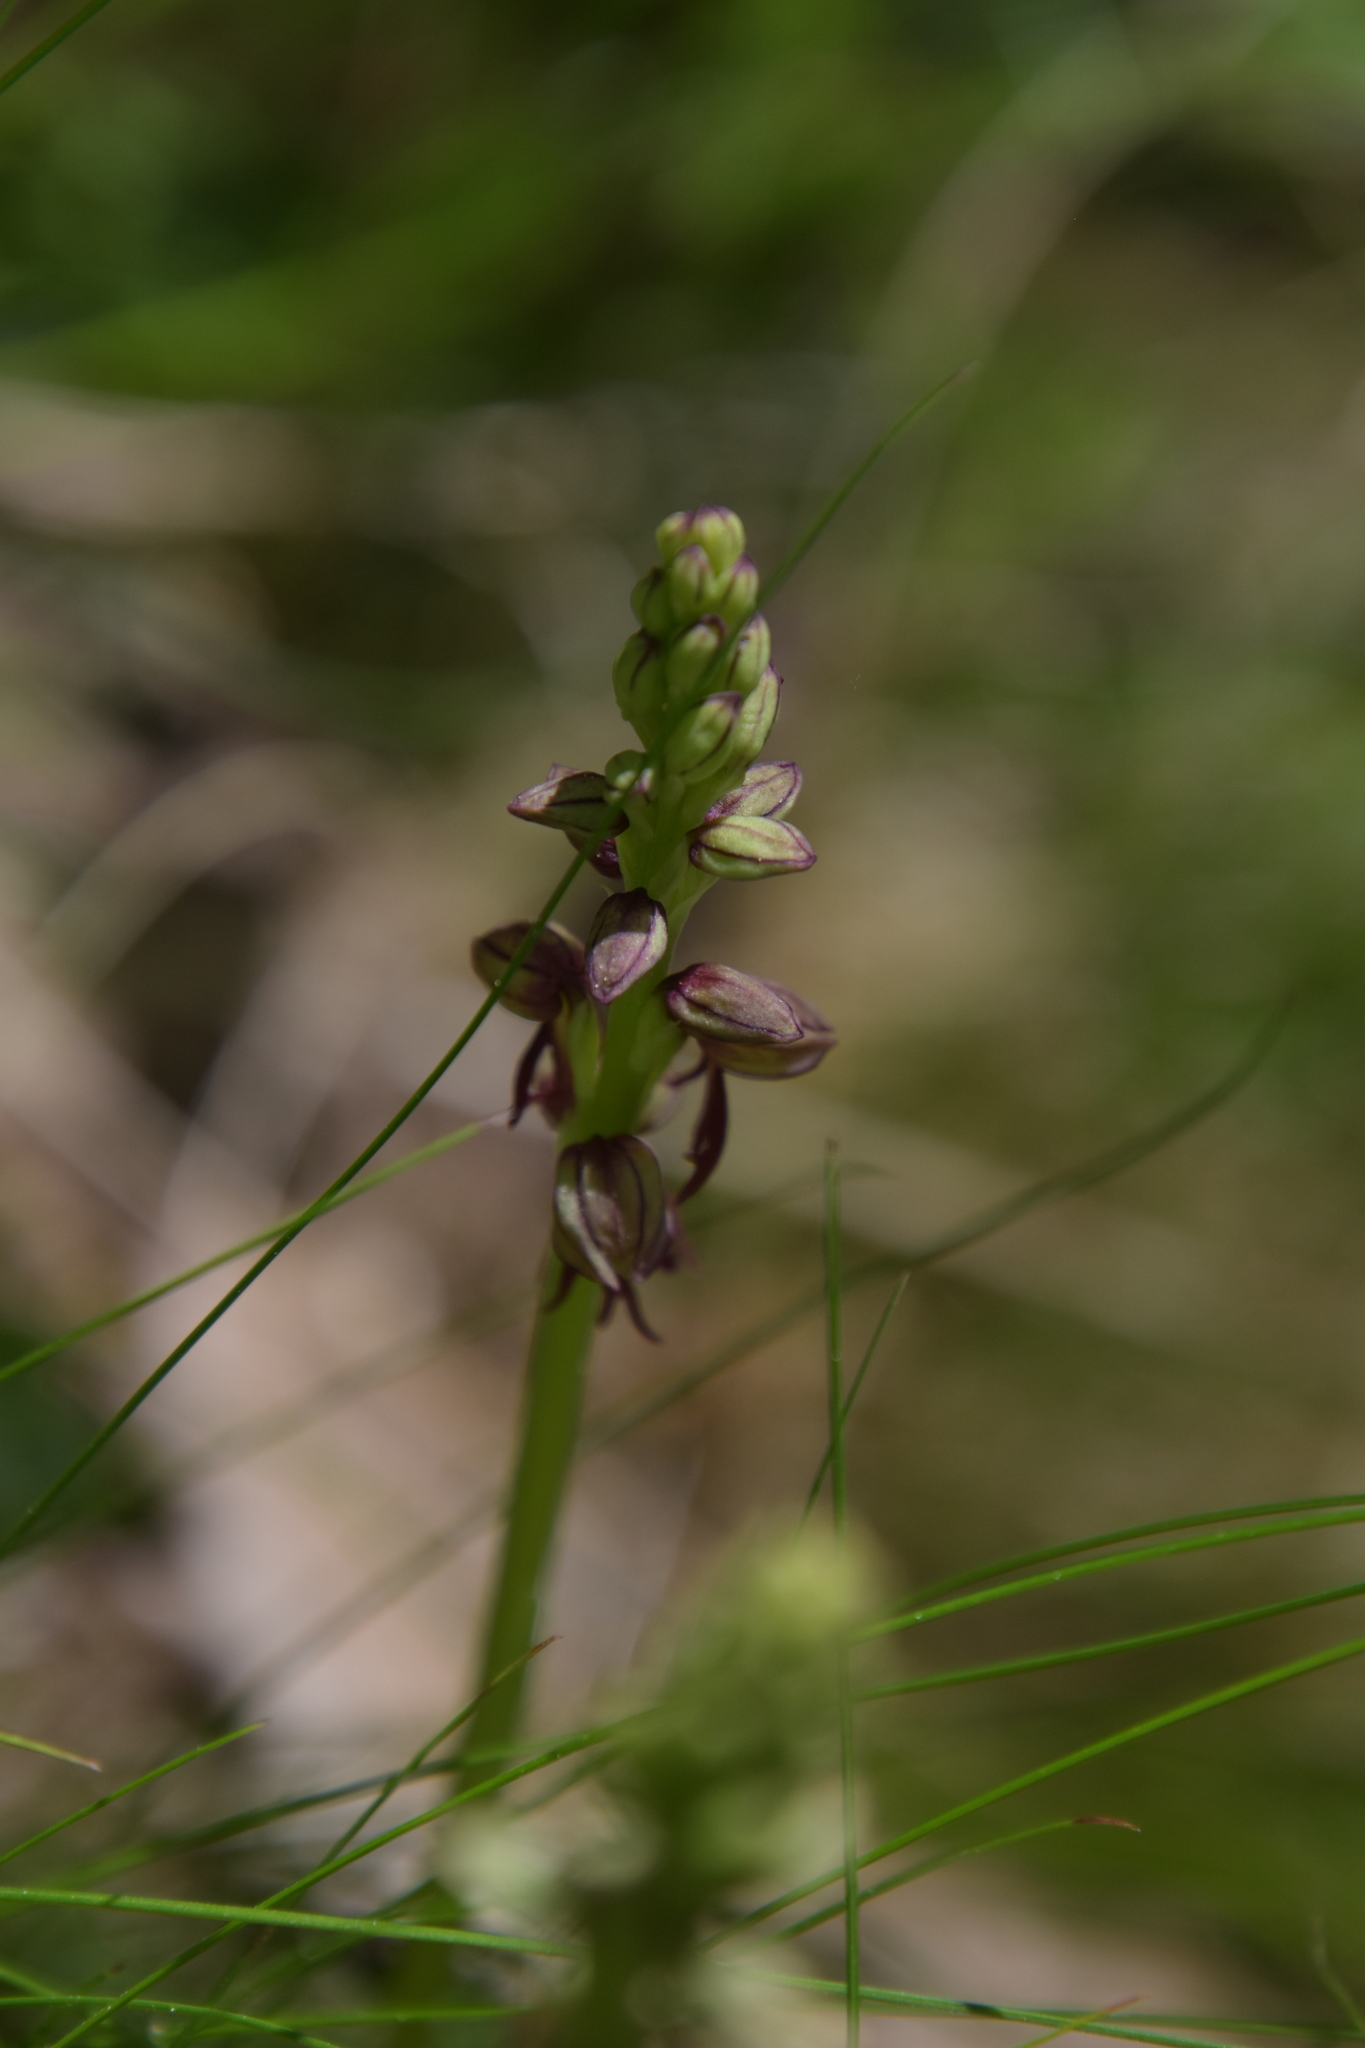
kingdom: Plantae
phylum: Tracheophyta
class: Liliopsida
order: Asparagales
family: Orchidaceae
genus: Orchis
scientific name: Orchis anthropophora
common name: Man orchid
